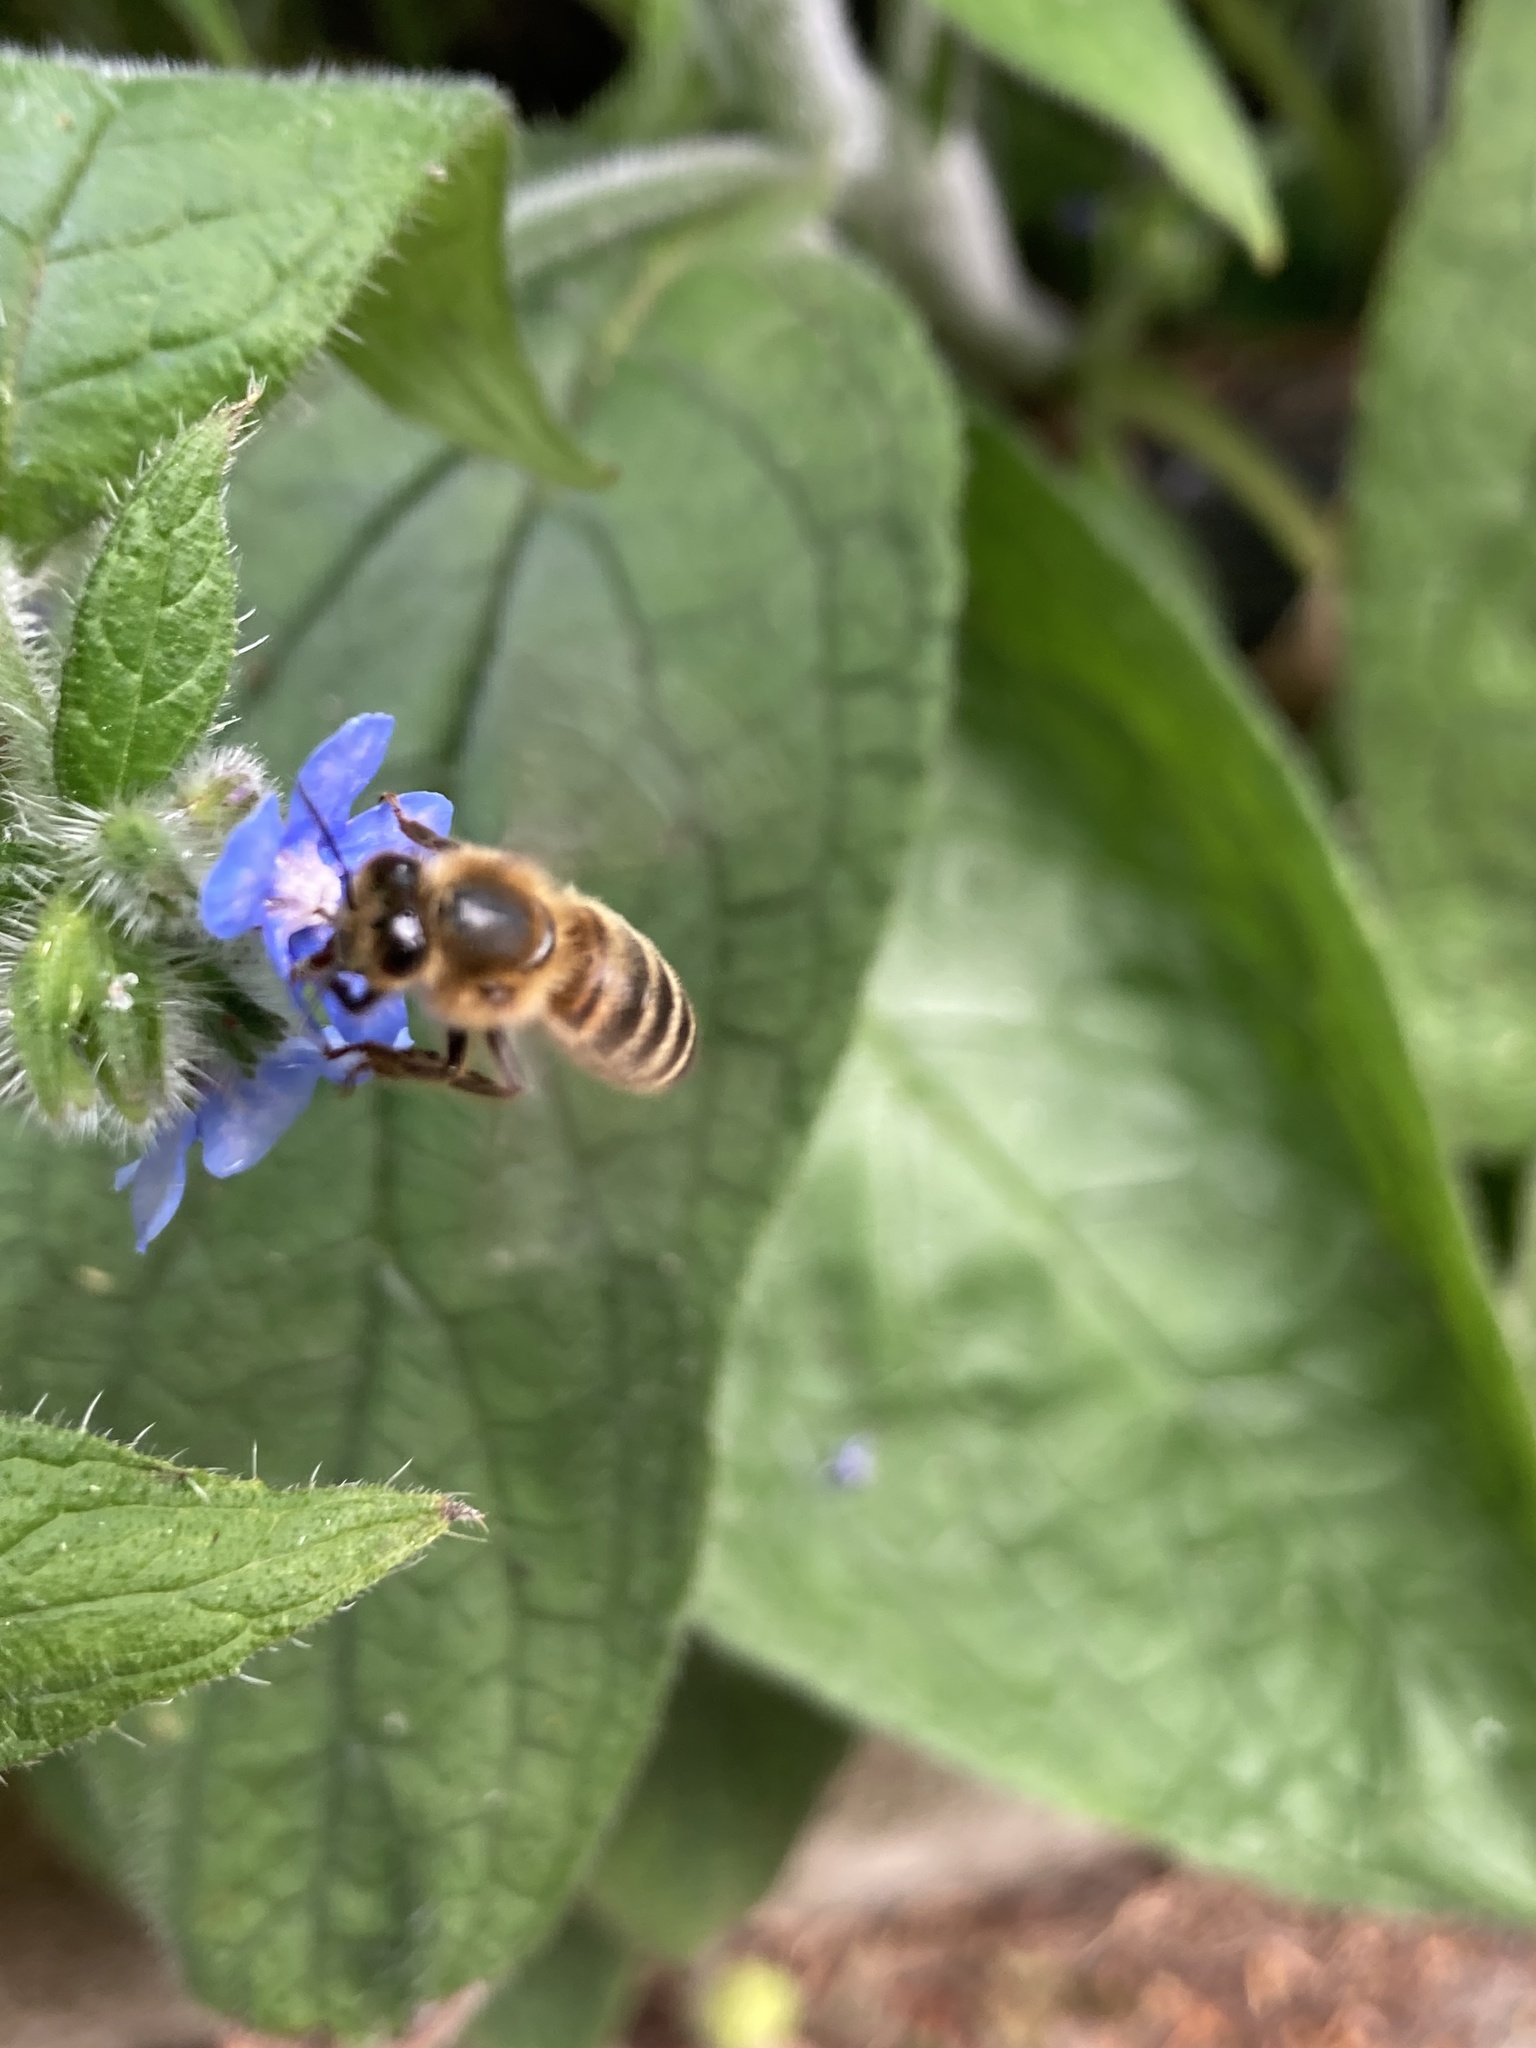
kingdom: Animalia
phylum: Arthropoda
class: Insecta
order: Hymenoptera
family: Apidae
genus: Apis
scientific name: Apis mellifera
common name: Honey bee
